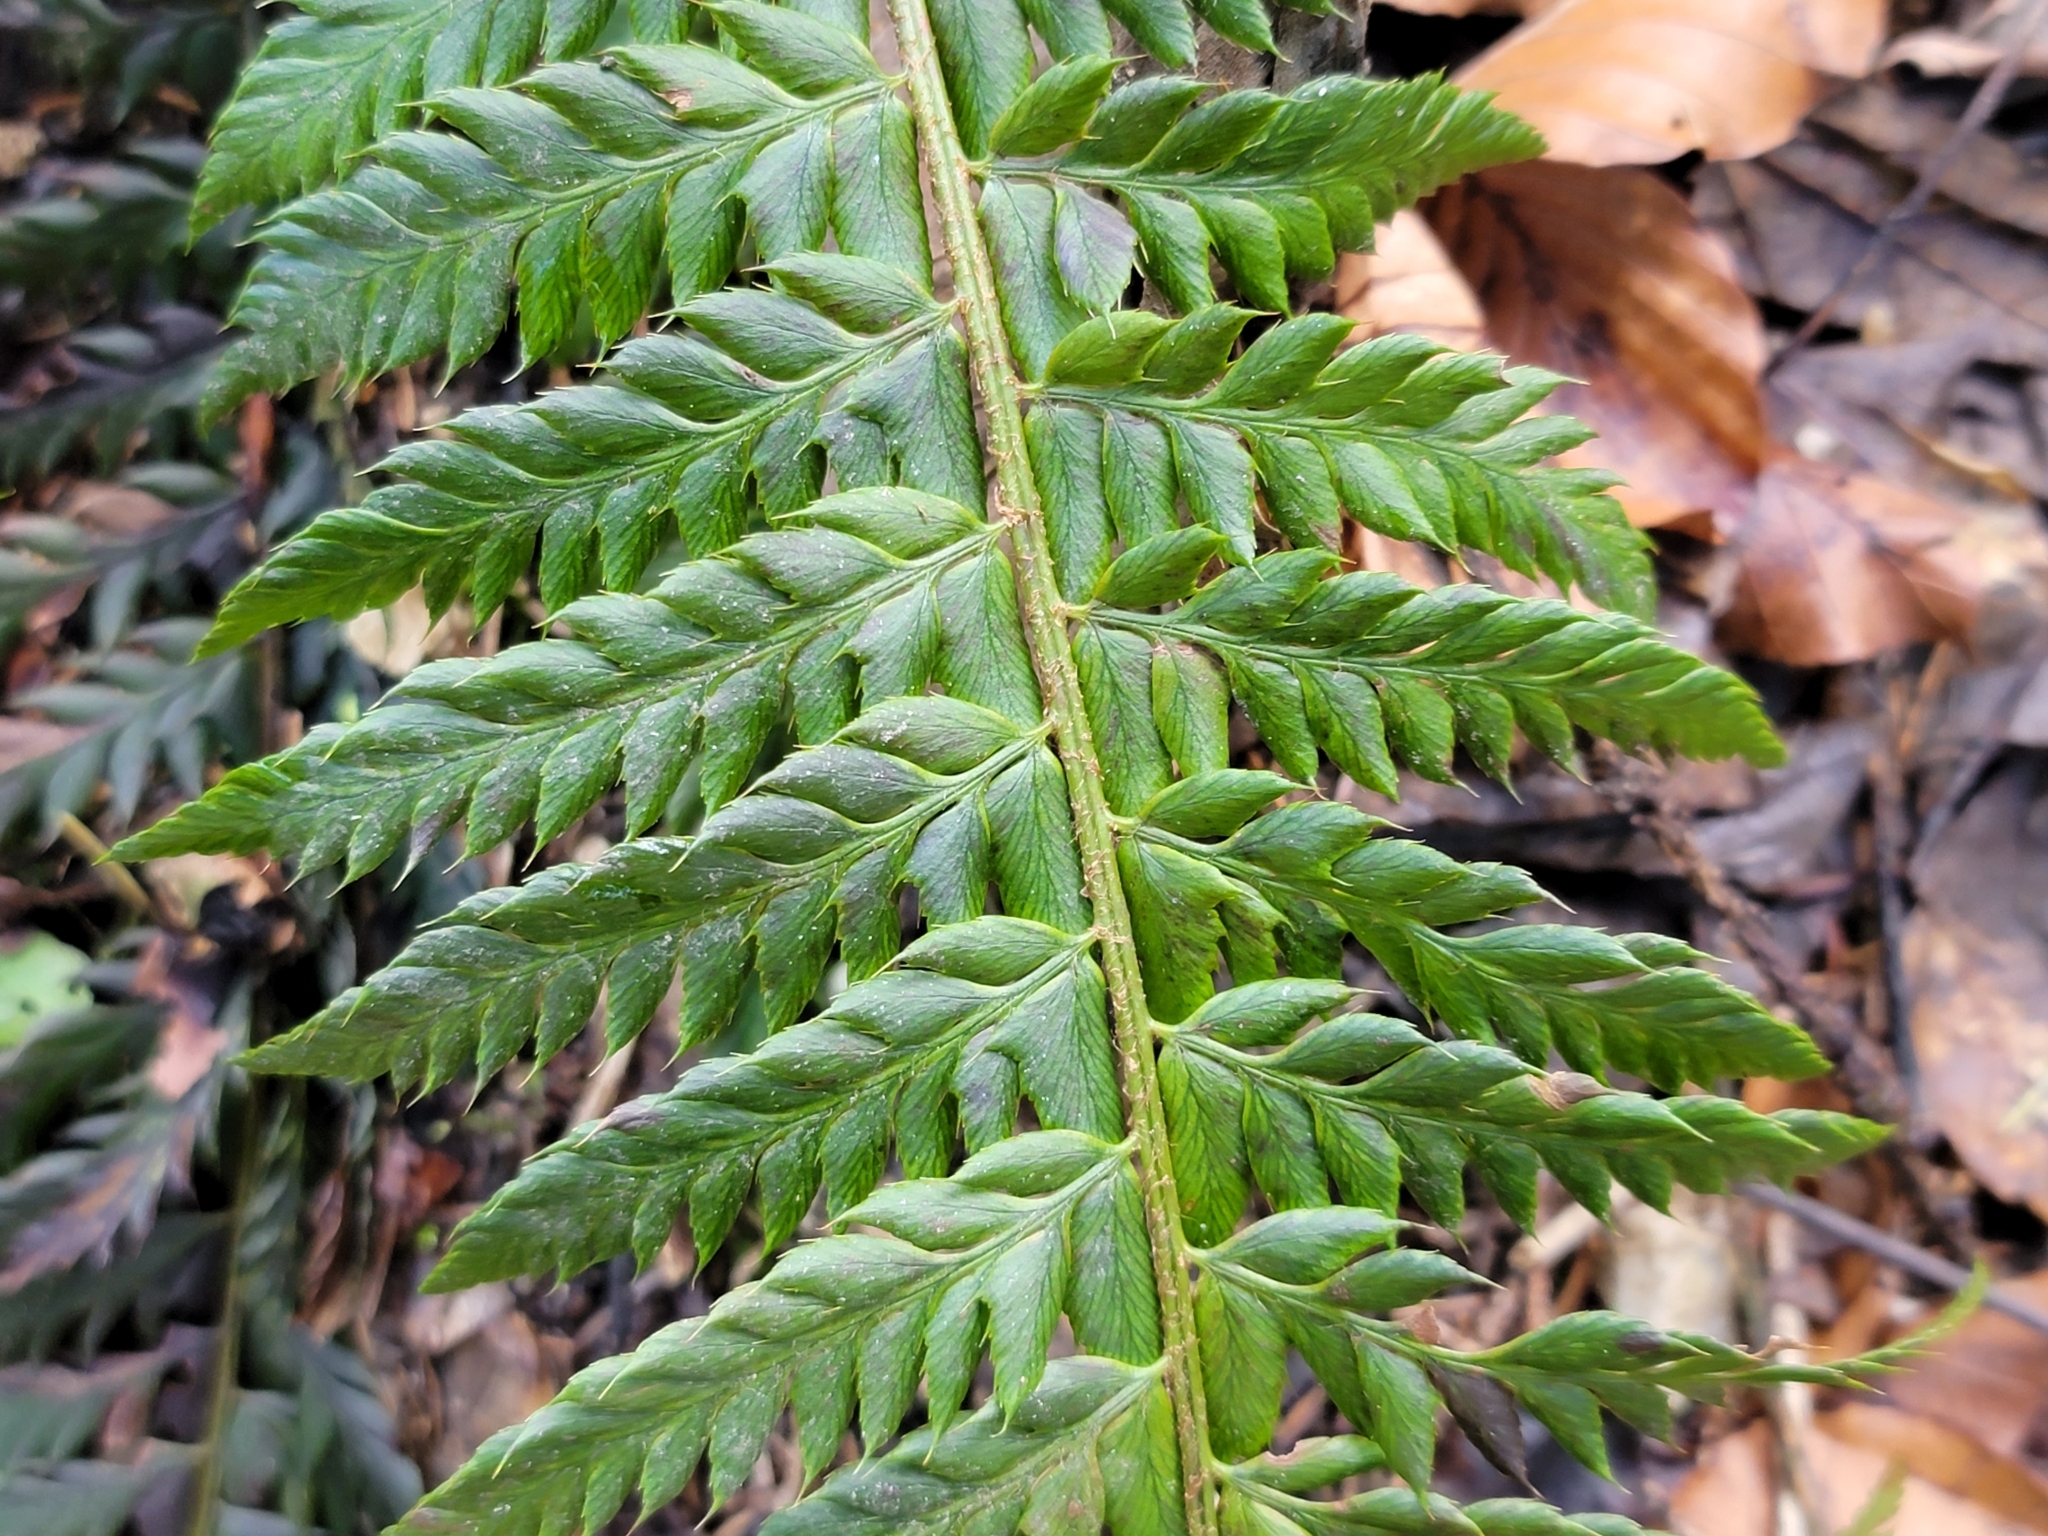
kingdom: Plantae
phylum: Tracheophyta
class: Polypodiopsida
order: Polypodiales
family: Dryopteridaceae
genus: Polystichum
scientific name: Polystichum aculeatum
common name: Hard shield-fern
